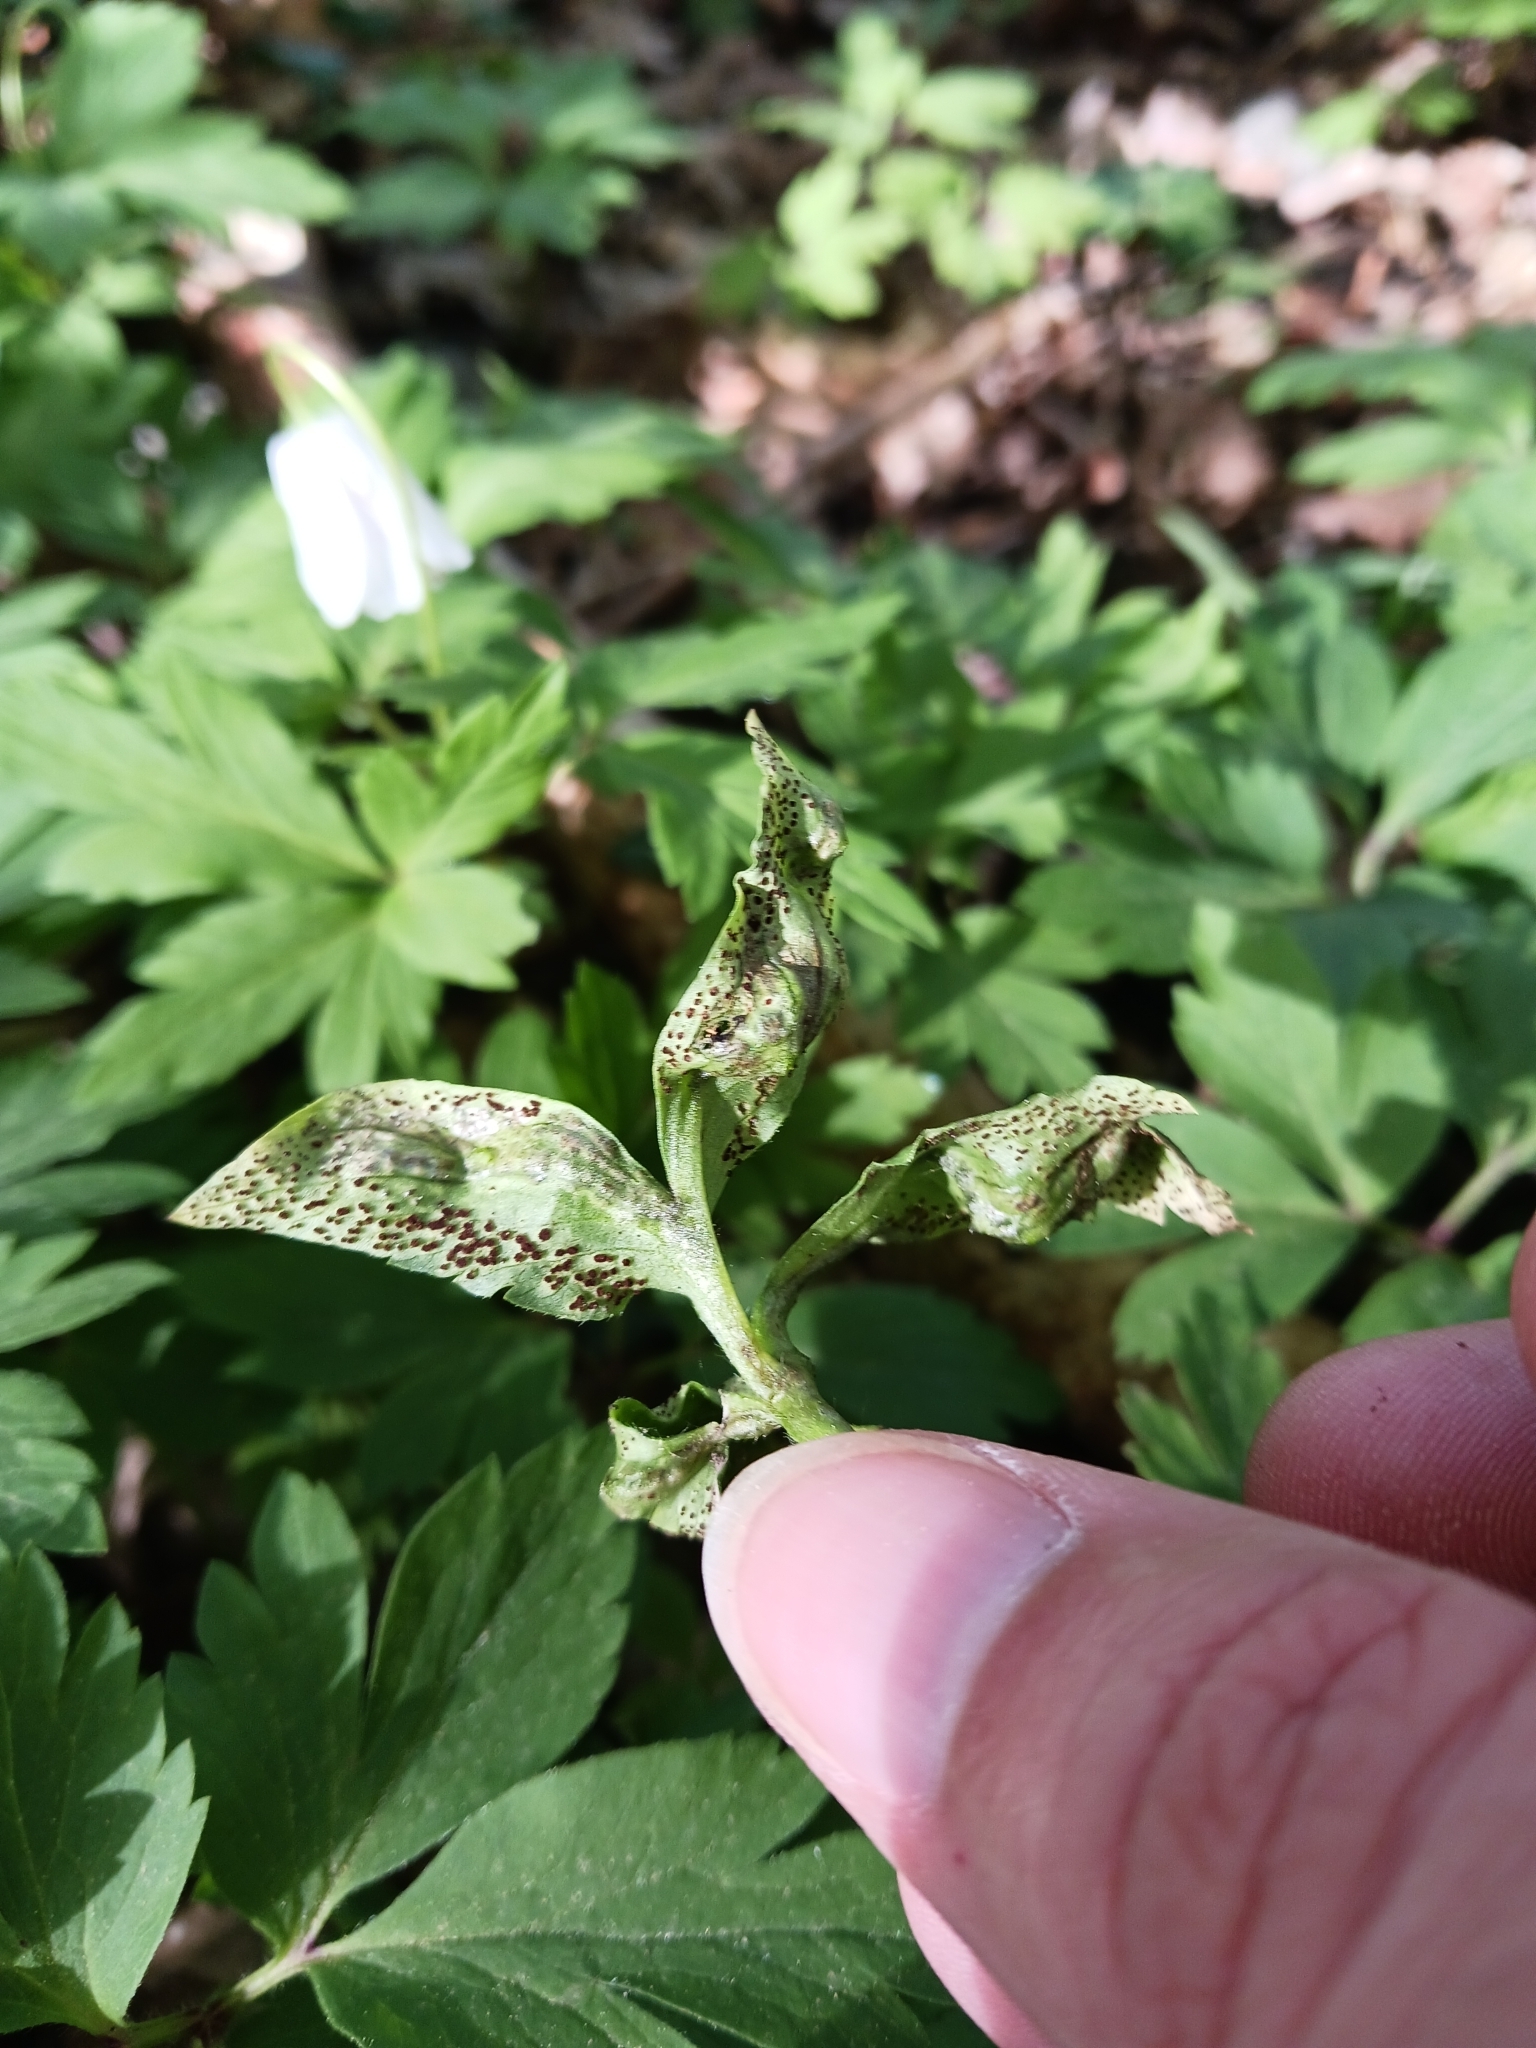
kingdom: Fungi
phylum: Basidiomycota
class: Pucciniomycetes
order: Pucciniales
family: Tranzscheliaceae
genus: Tranzschelia
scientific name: Tranzschelia anemones
